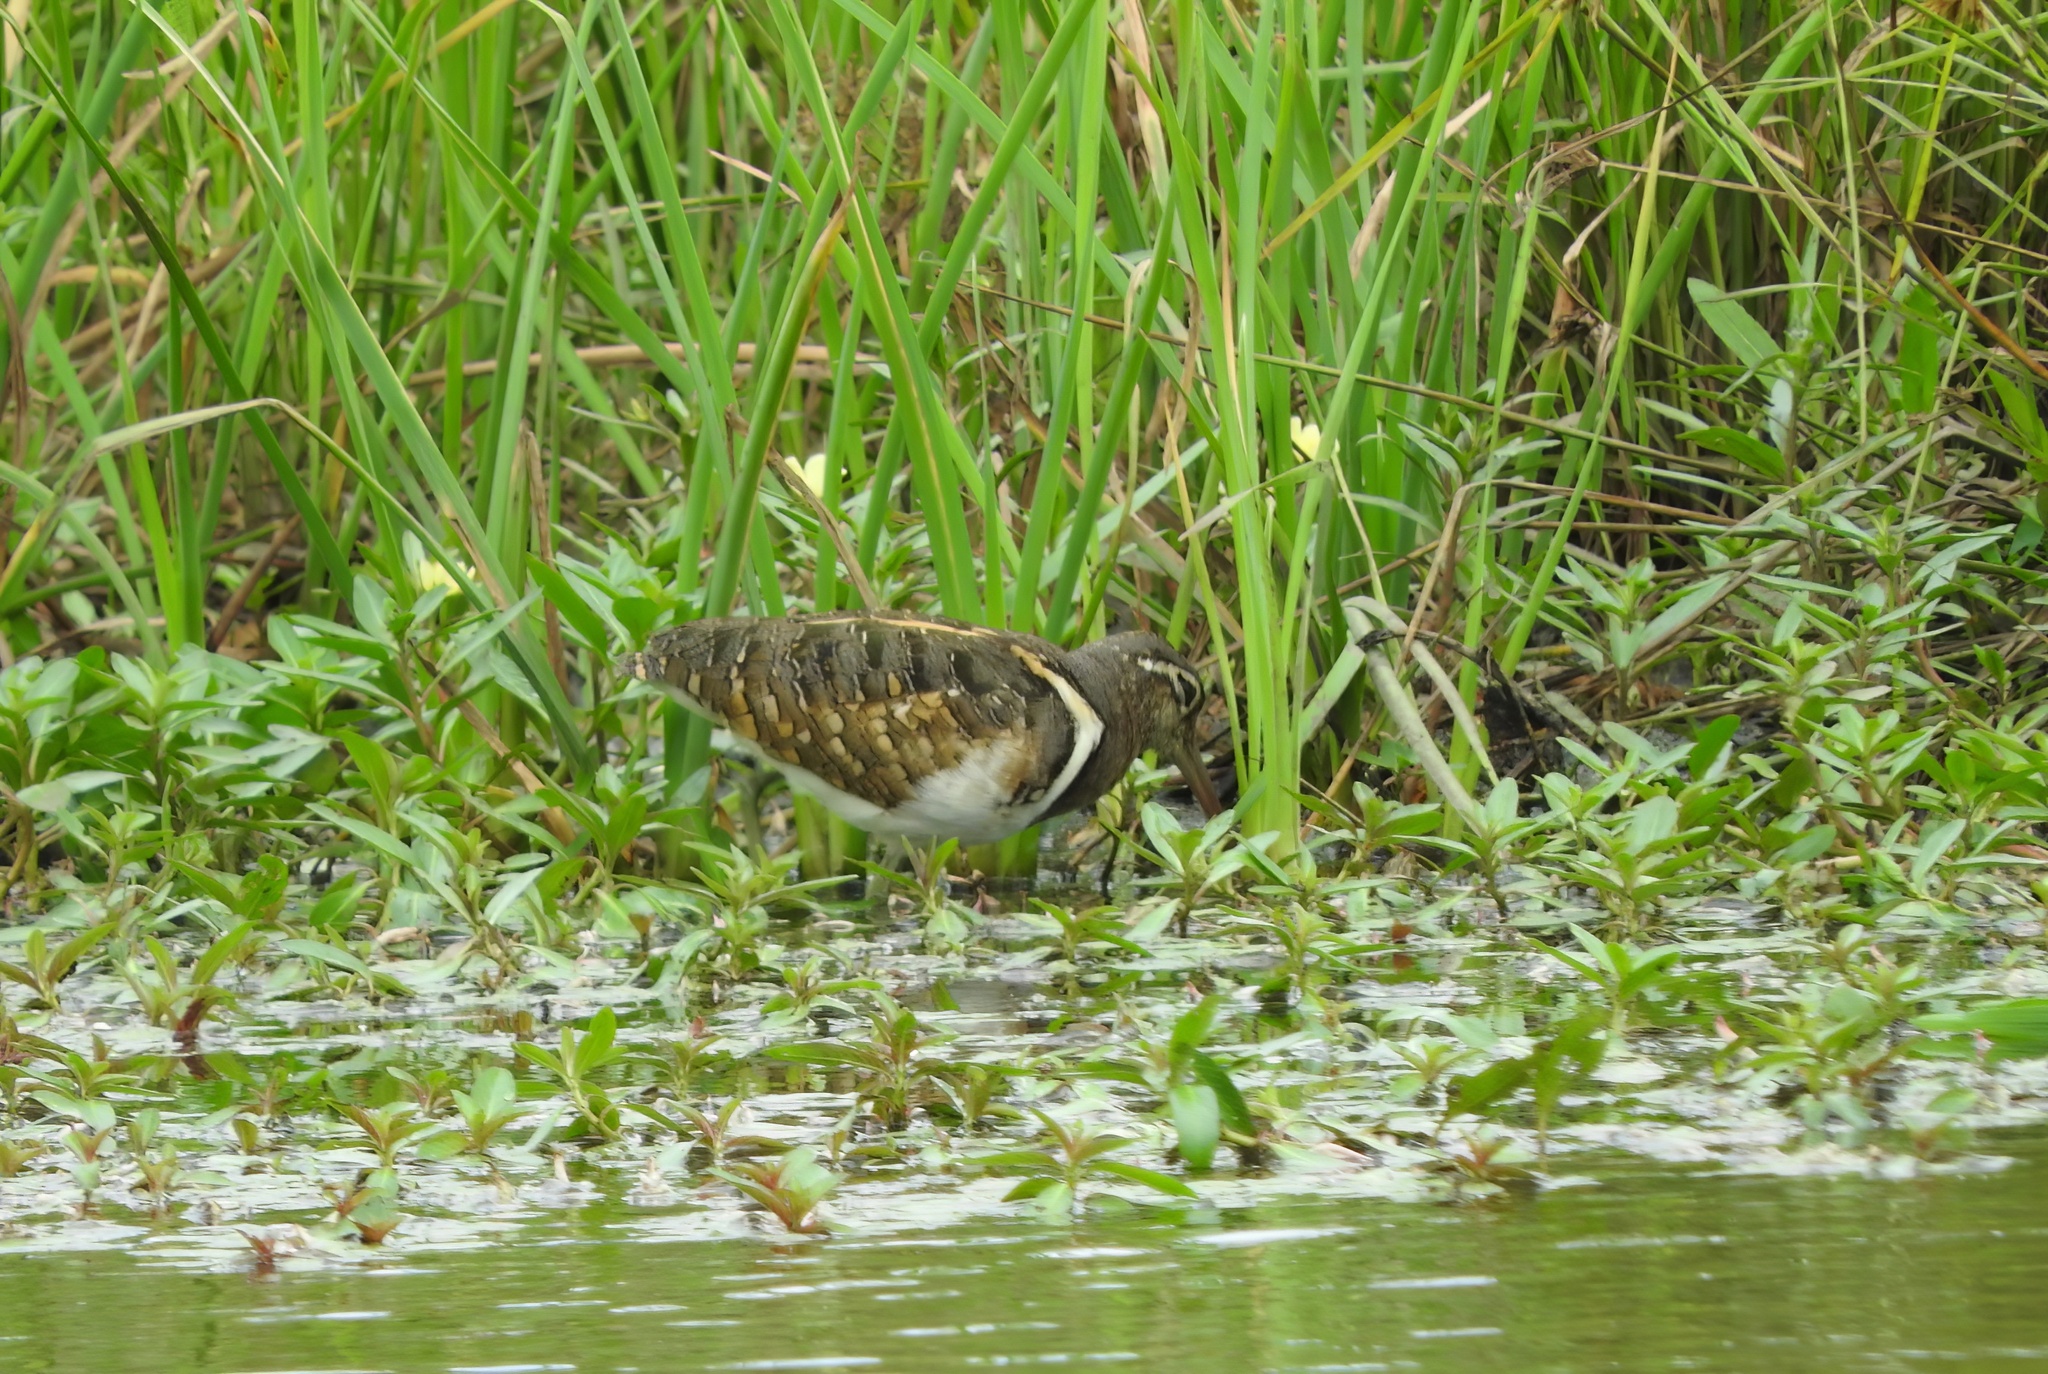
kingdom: Animalia
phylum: Chordata
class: Aves
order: Charadriiformes
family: Rostratulidae
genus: Rostratula
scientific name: Rostratula benghalensis
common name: Greater painted-snipe
